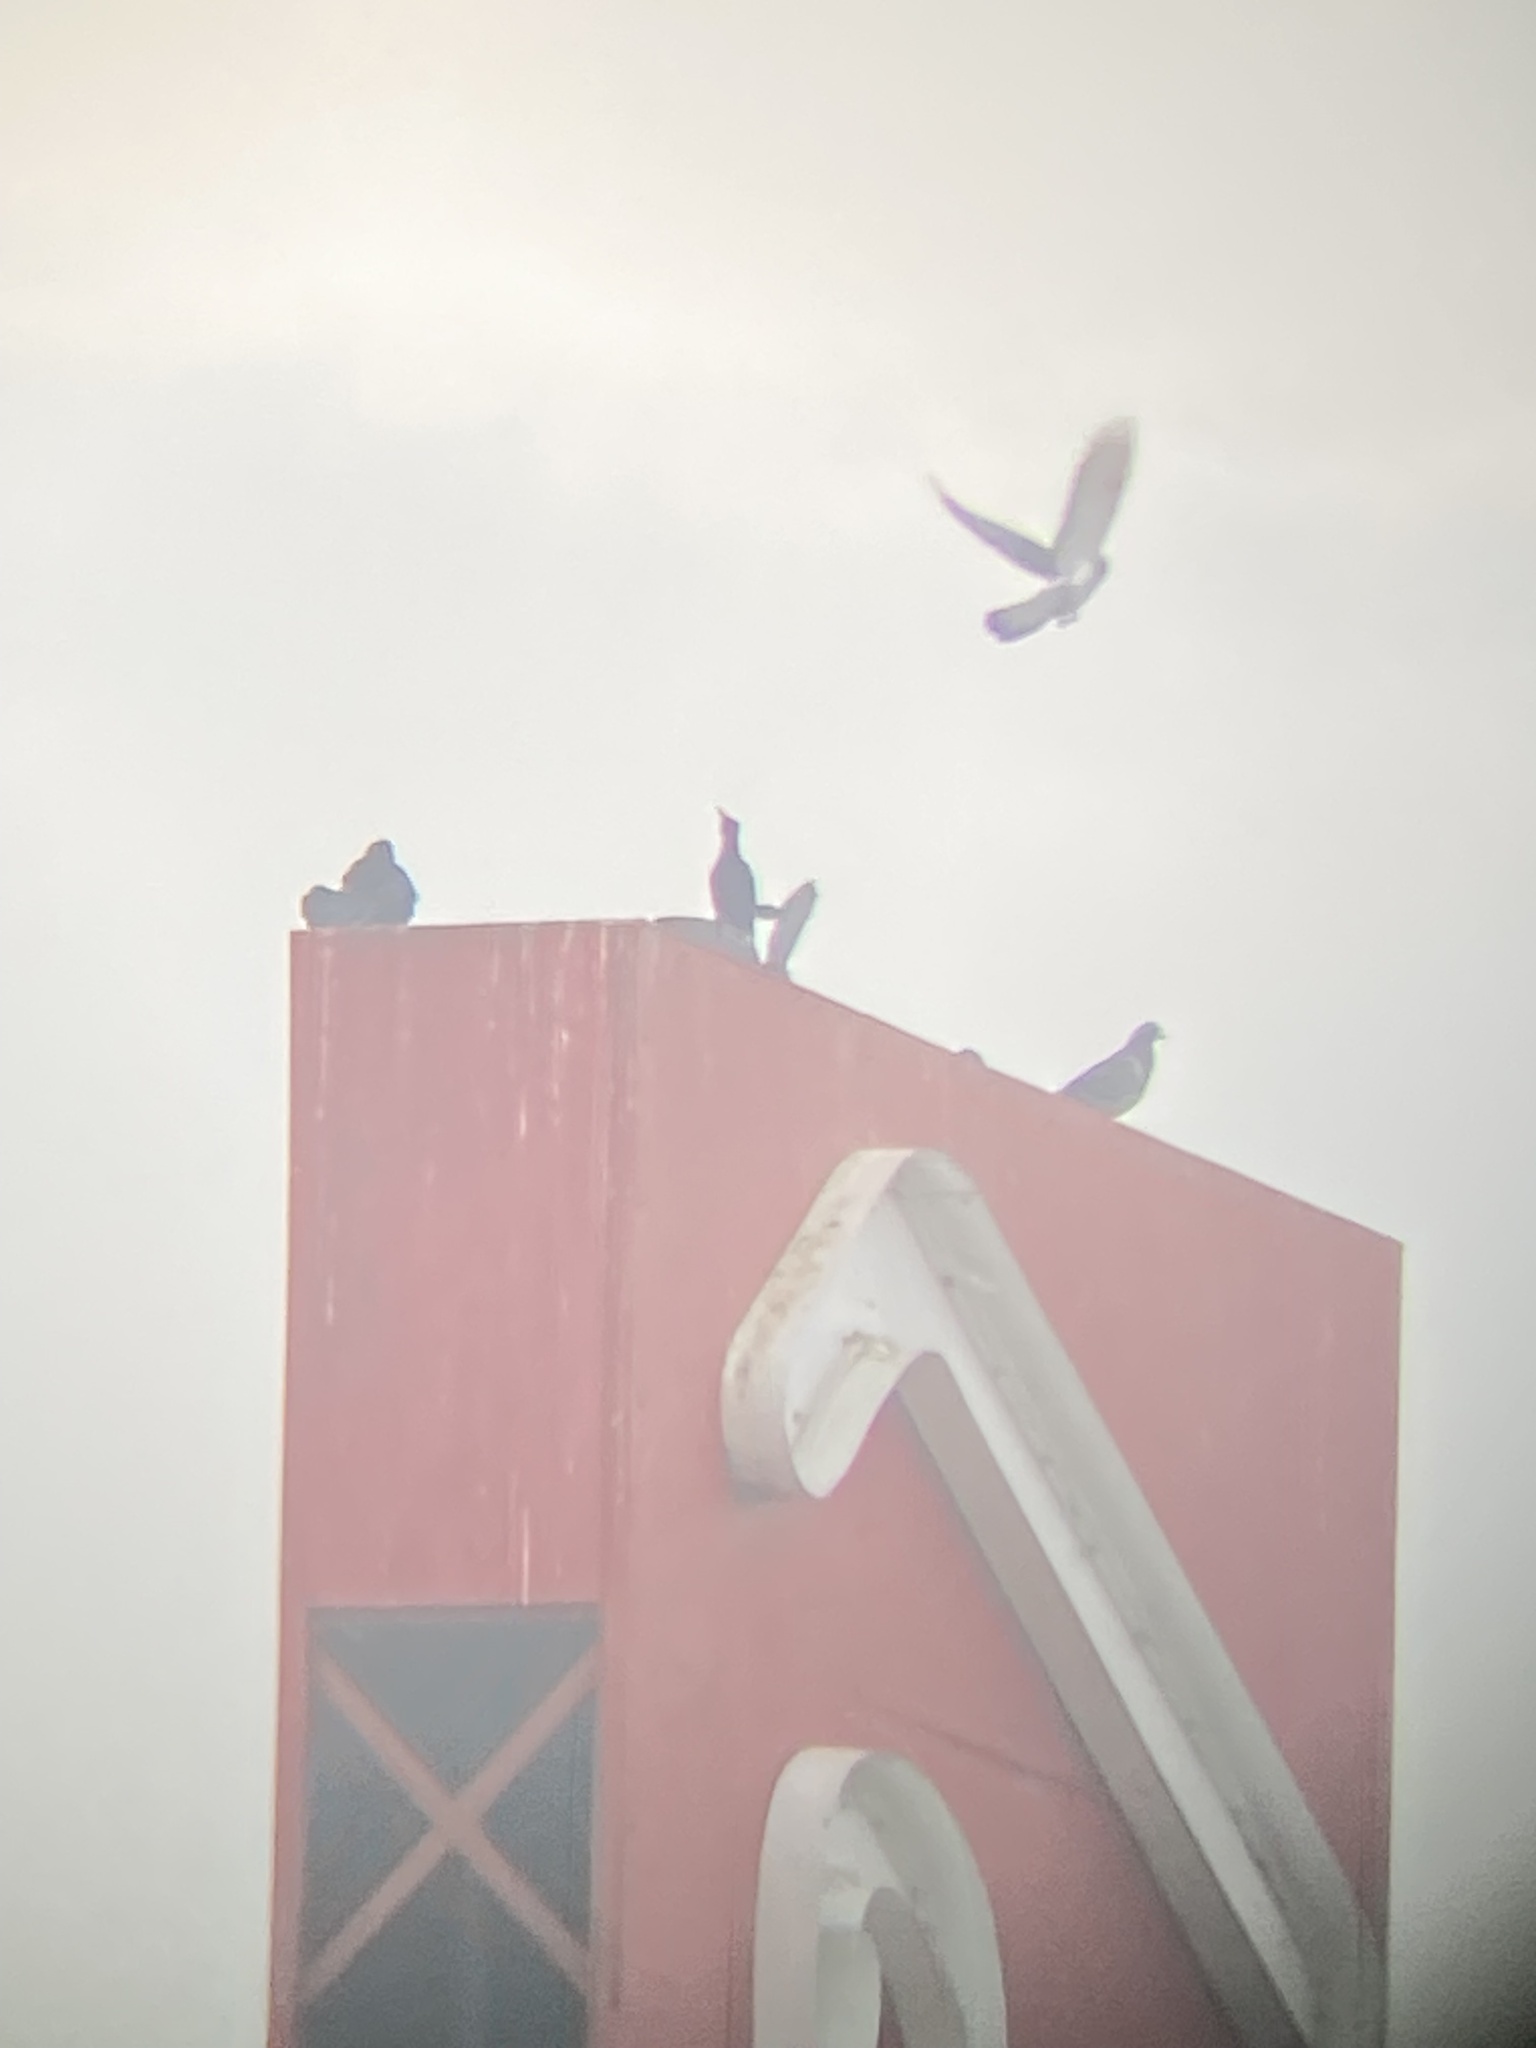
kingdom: Animalia
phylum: Chordata
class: Aves
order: Columbiformes
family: Columbidae
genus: Columba
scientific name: Columba livia
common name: Rock pigeon
